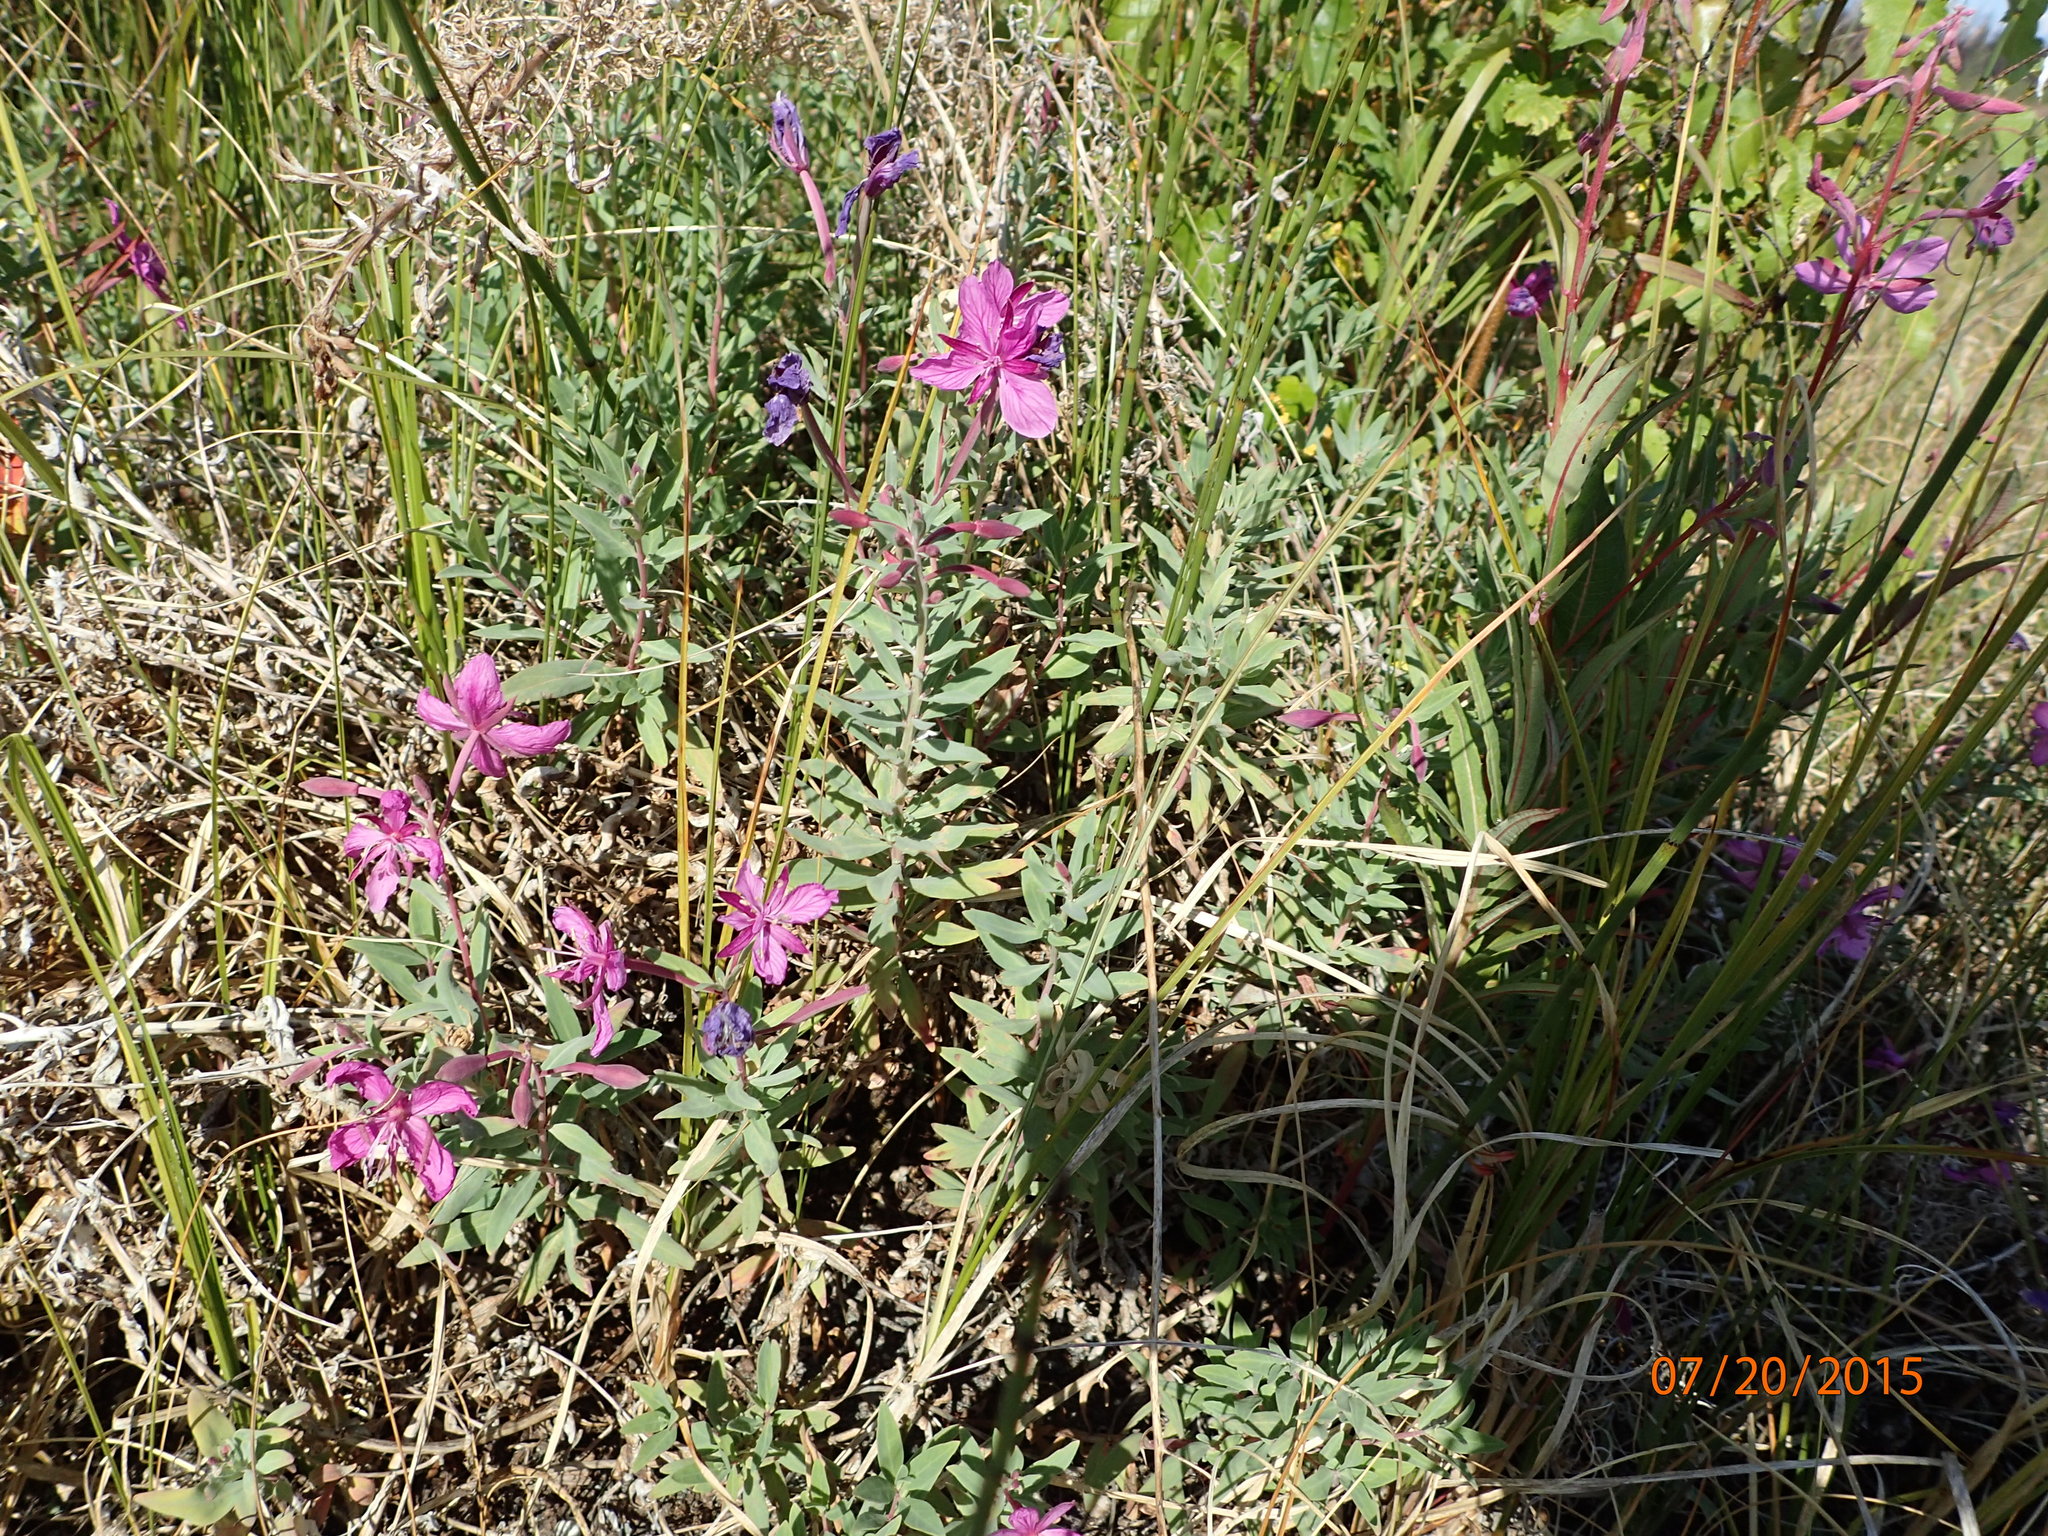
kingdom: Plantae
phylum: Tracheophyta
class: Magnoliopsida
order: Myrtales
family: Onagraceae
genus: Chamaenerion
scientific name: Chamaenerion latifolium
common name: Dwarf fireweed
